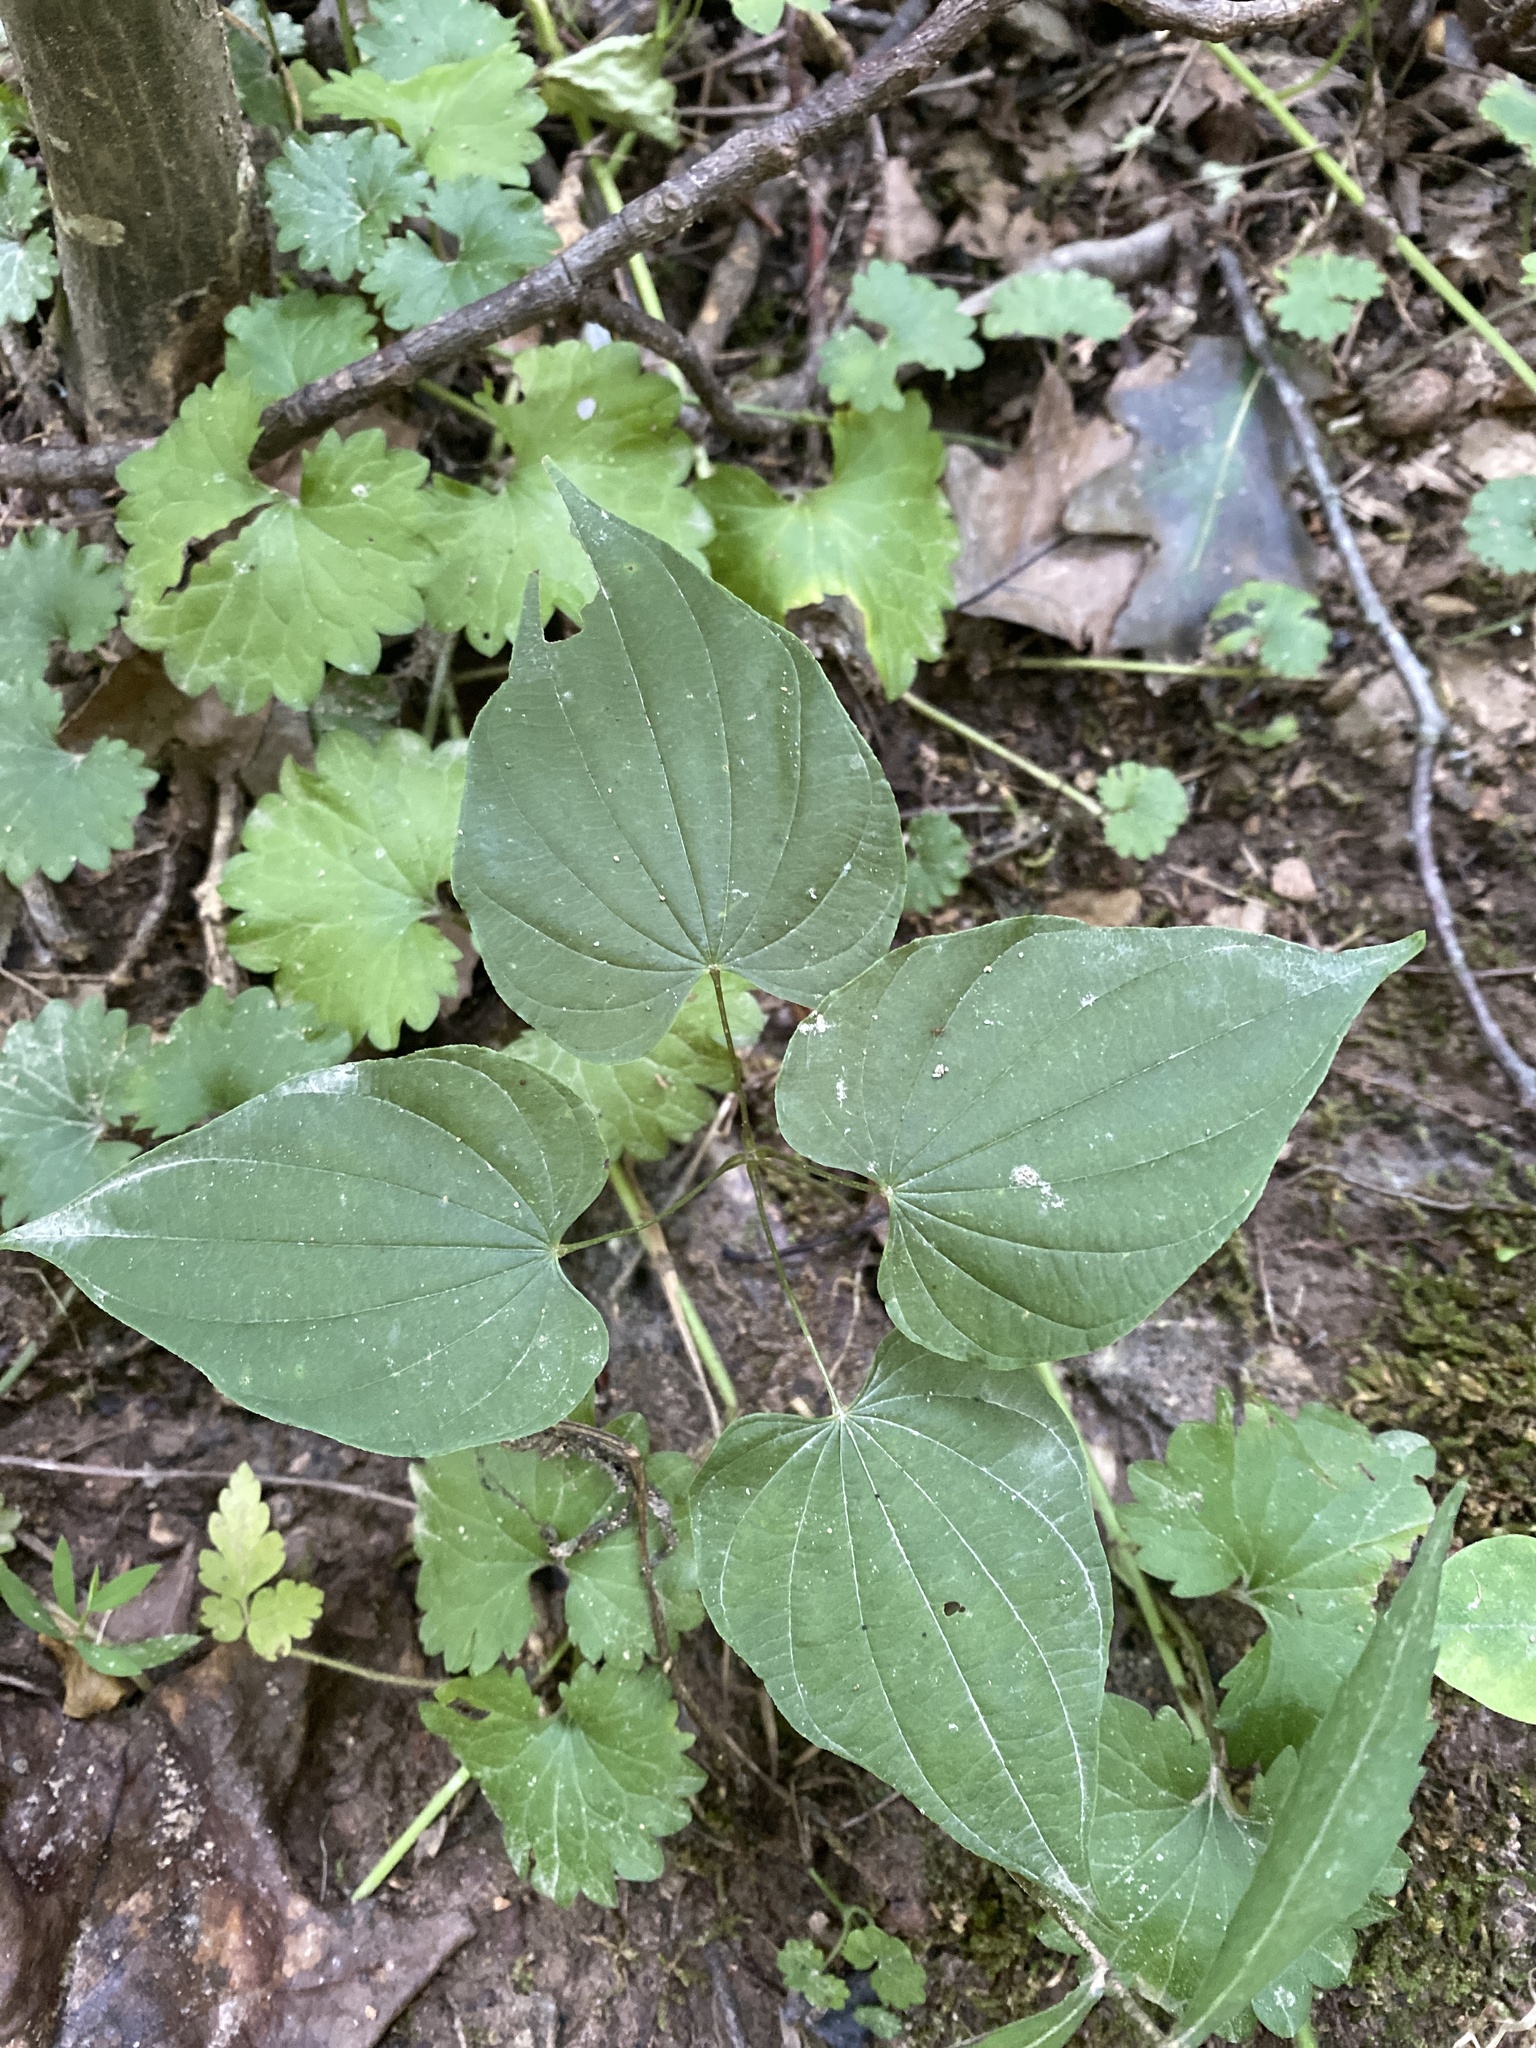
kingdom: Plantae
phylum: Tracheophyta
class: Liliopsida
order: Dioscoreales
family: Dioscoreaceae
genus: Dioscorea
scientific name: Dioscorea villosa
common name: Wild yam
